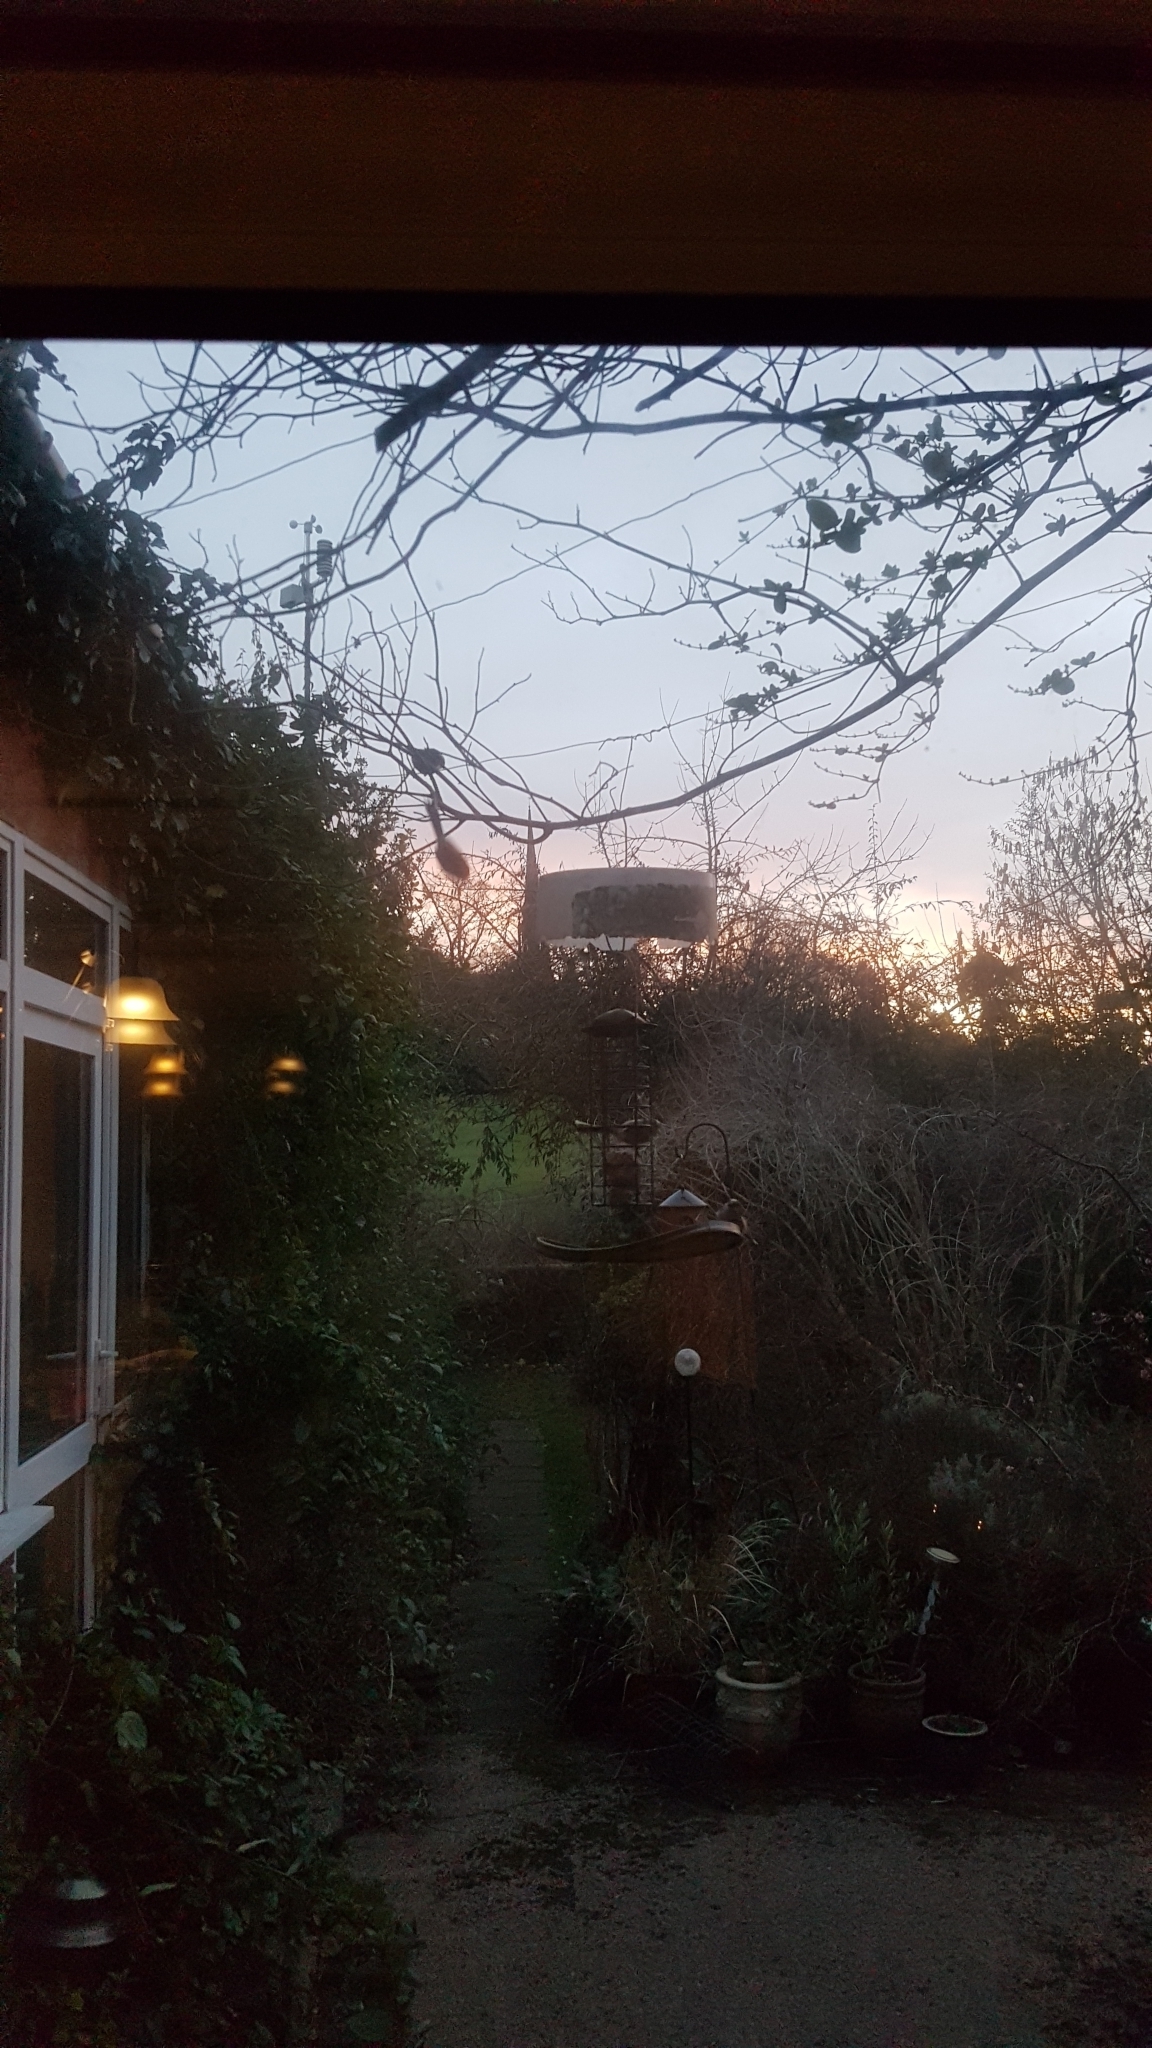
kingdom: Animalia
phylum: Chordata
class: Aves
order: Passeriformes
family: Aegithalidae
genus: Aegithalos
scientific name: Aegithalos caudatus
